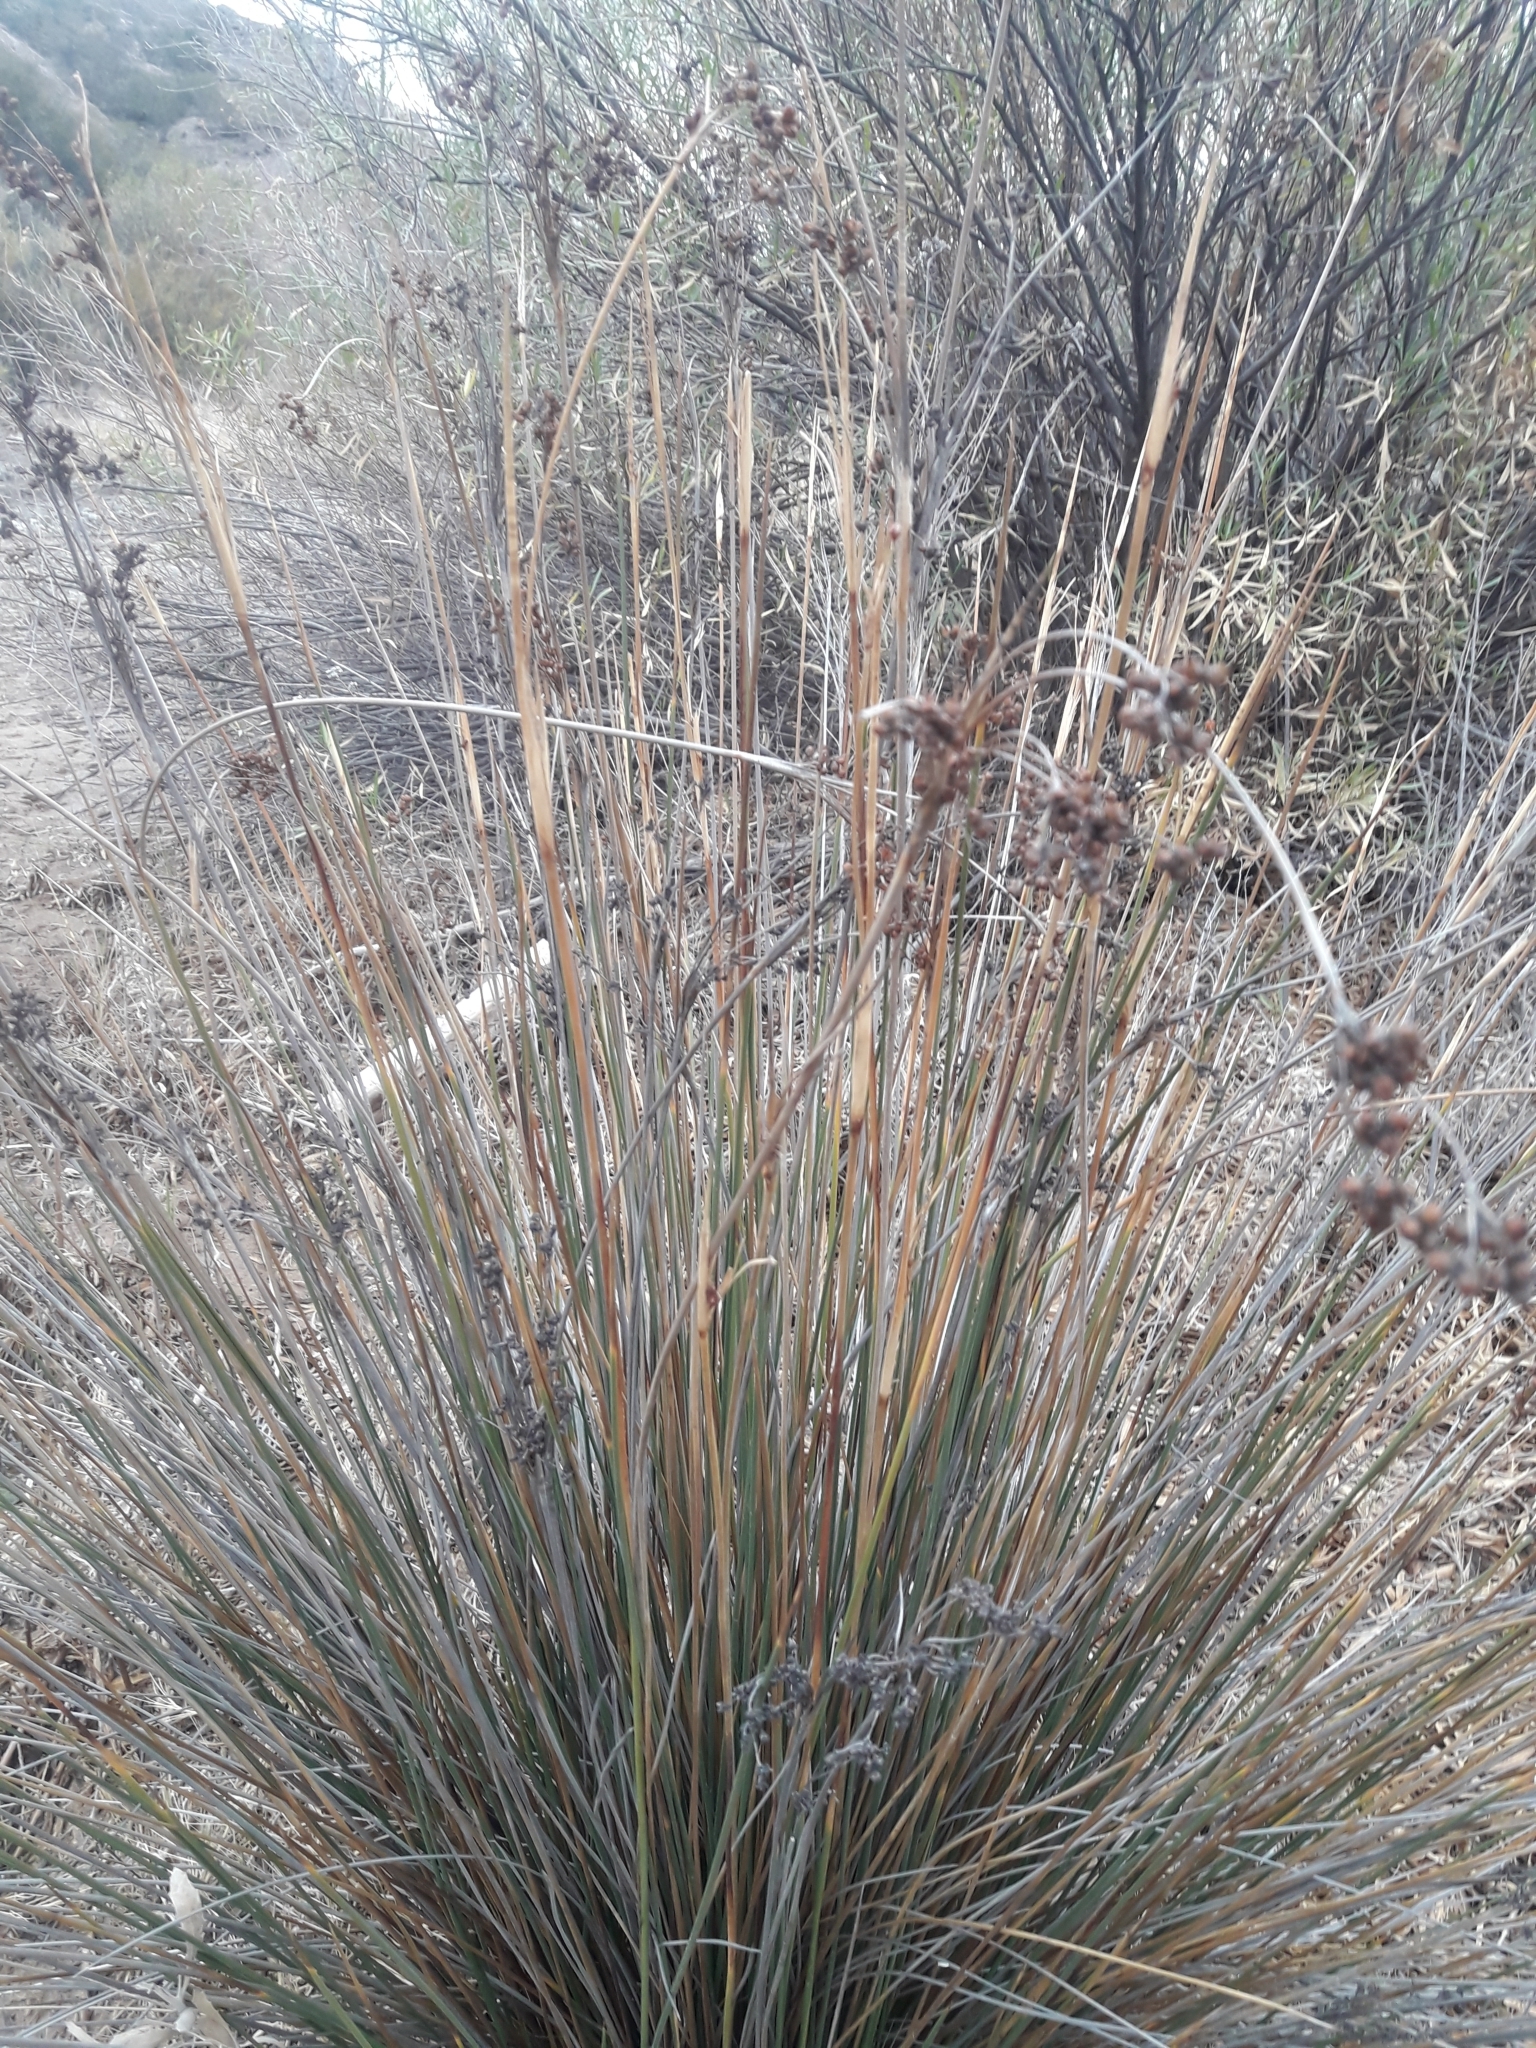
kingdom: Plantae
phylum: Tracheophyta
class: Liliopsida
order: Poales
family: Juncaceae
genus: Juncus
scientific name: Juncus acutus
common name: Sharp rush
